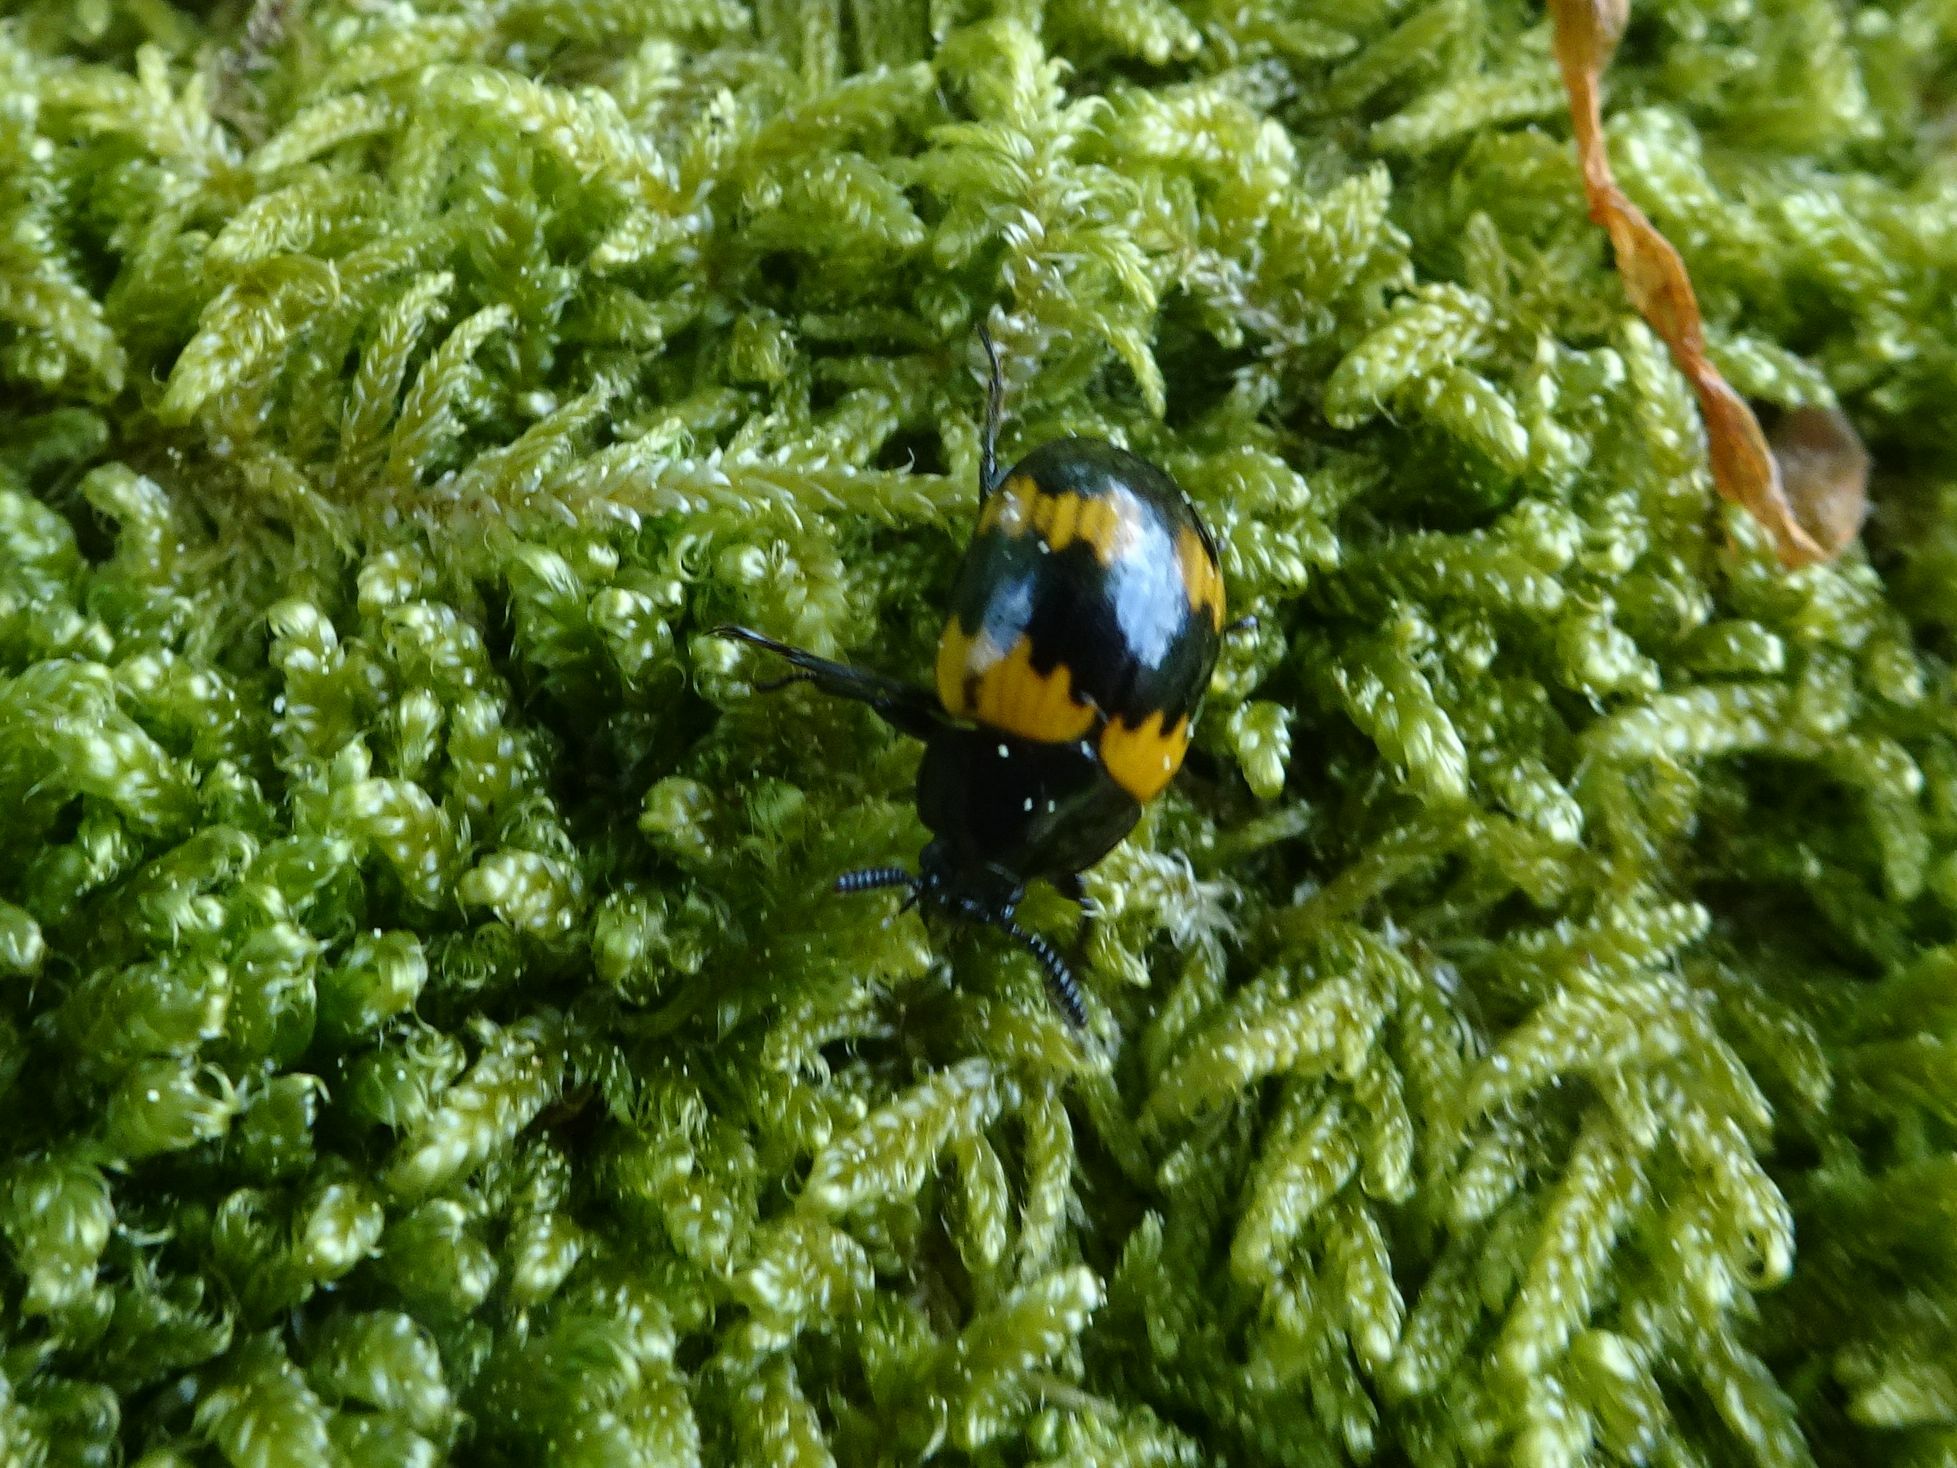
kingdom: Animalia
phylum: Arthropoda
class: Insecta
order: Coleoptera
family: Tenebrionidae
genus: Diaperis
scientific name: Diaperis boleti
